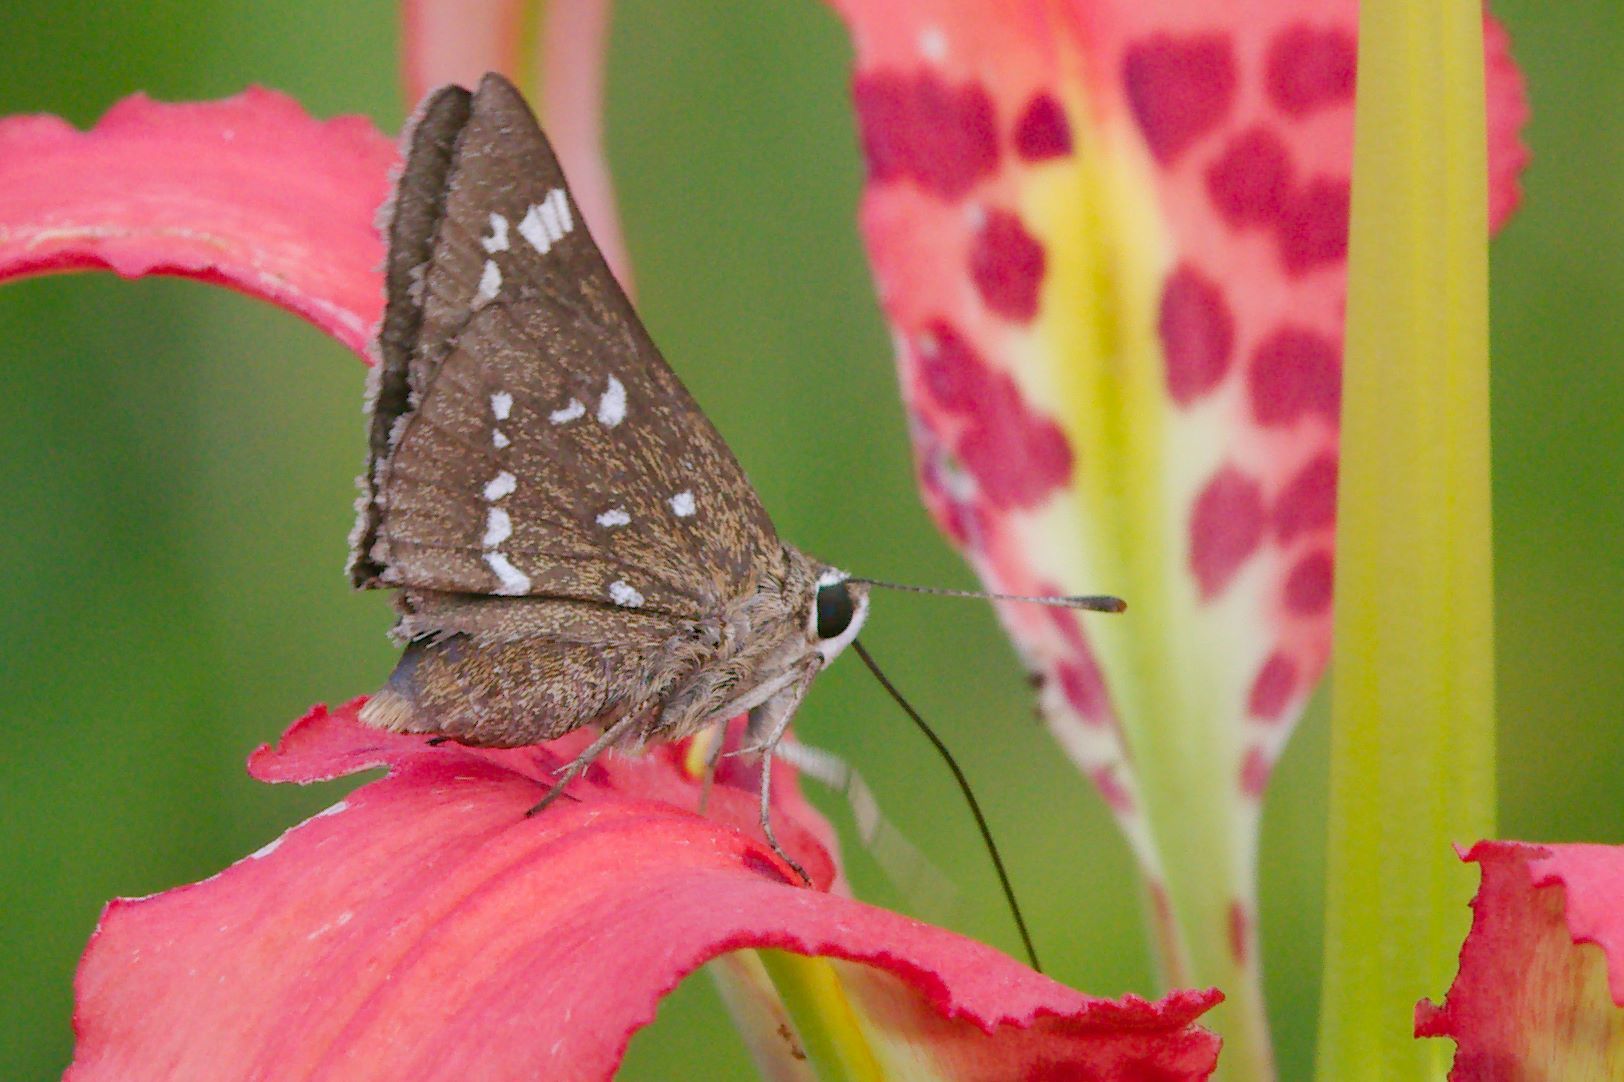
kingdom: Animalia
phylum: Arthropoda
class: Insecta
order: Lepidoptera
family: Hesperiidae
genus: Atrytonopsis
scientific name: Atrytonopsis loammi
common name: Loammi skipper
